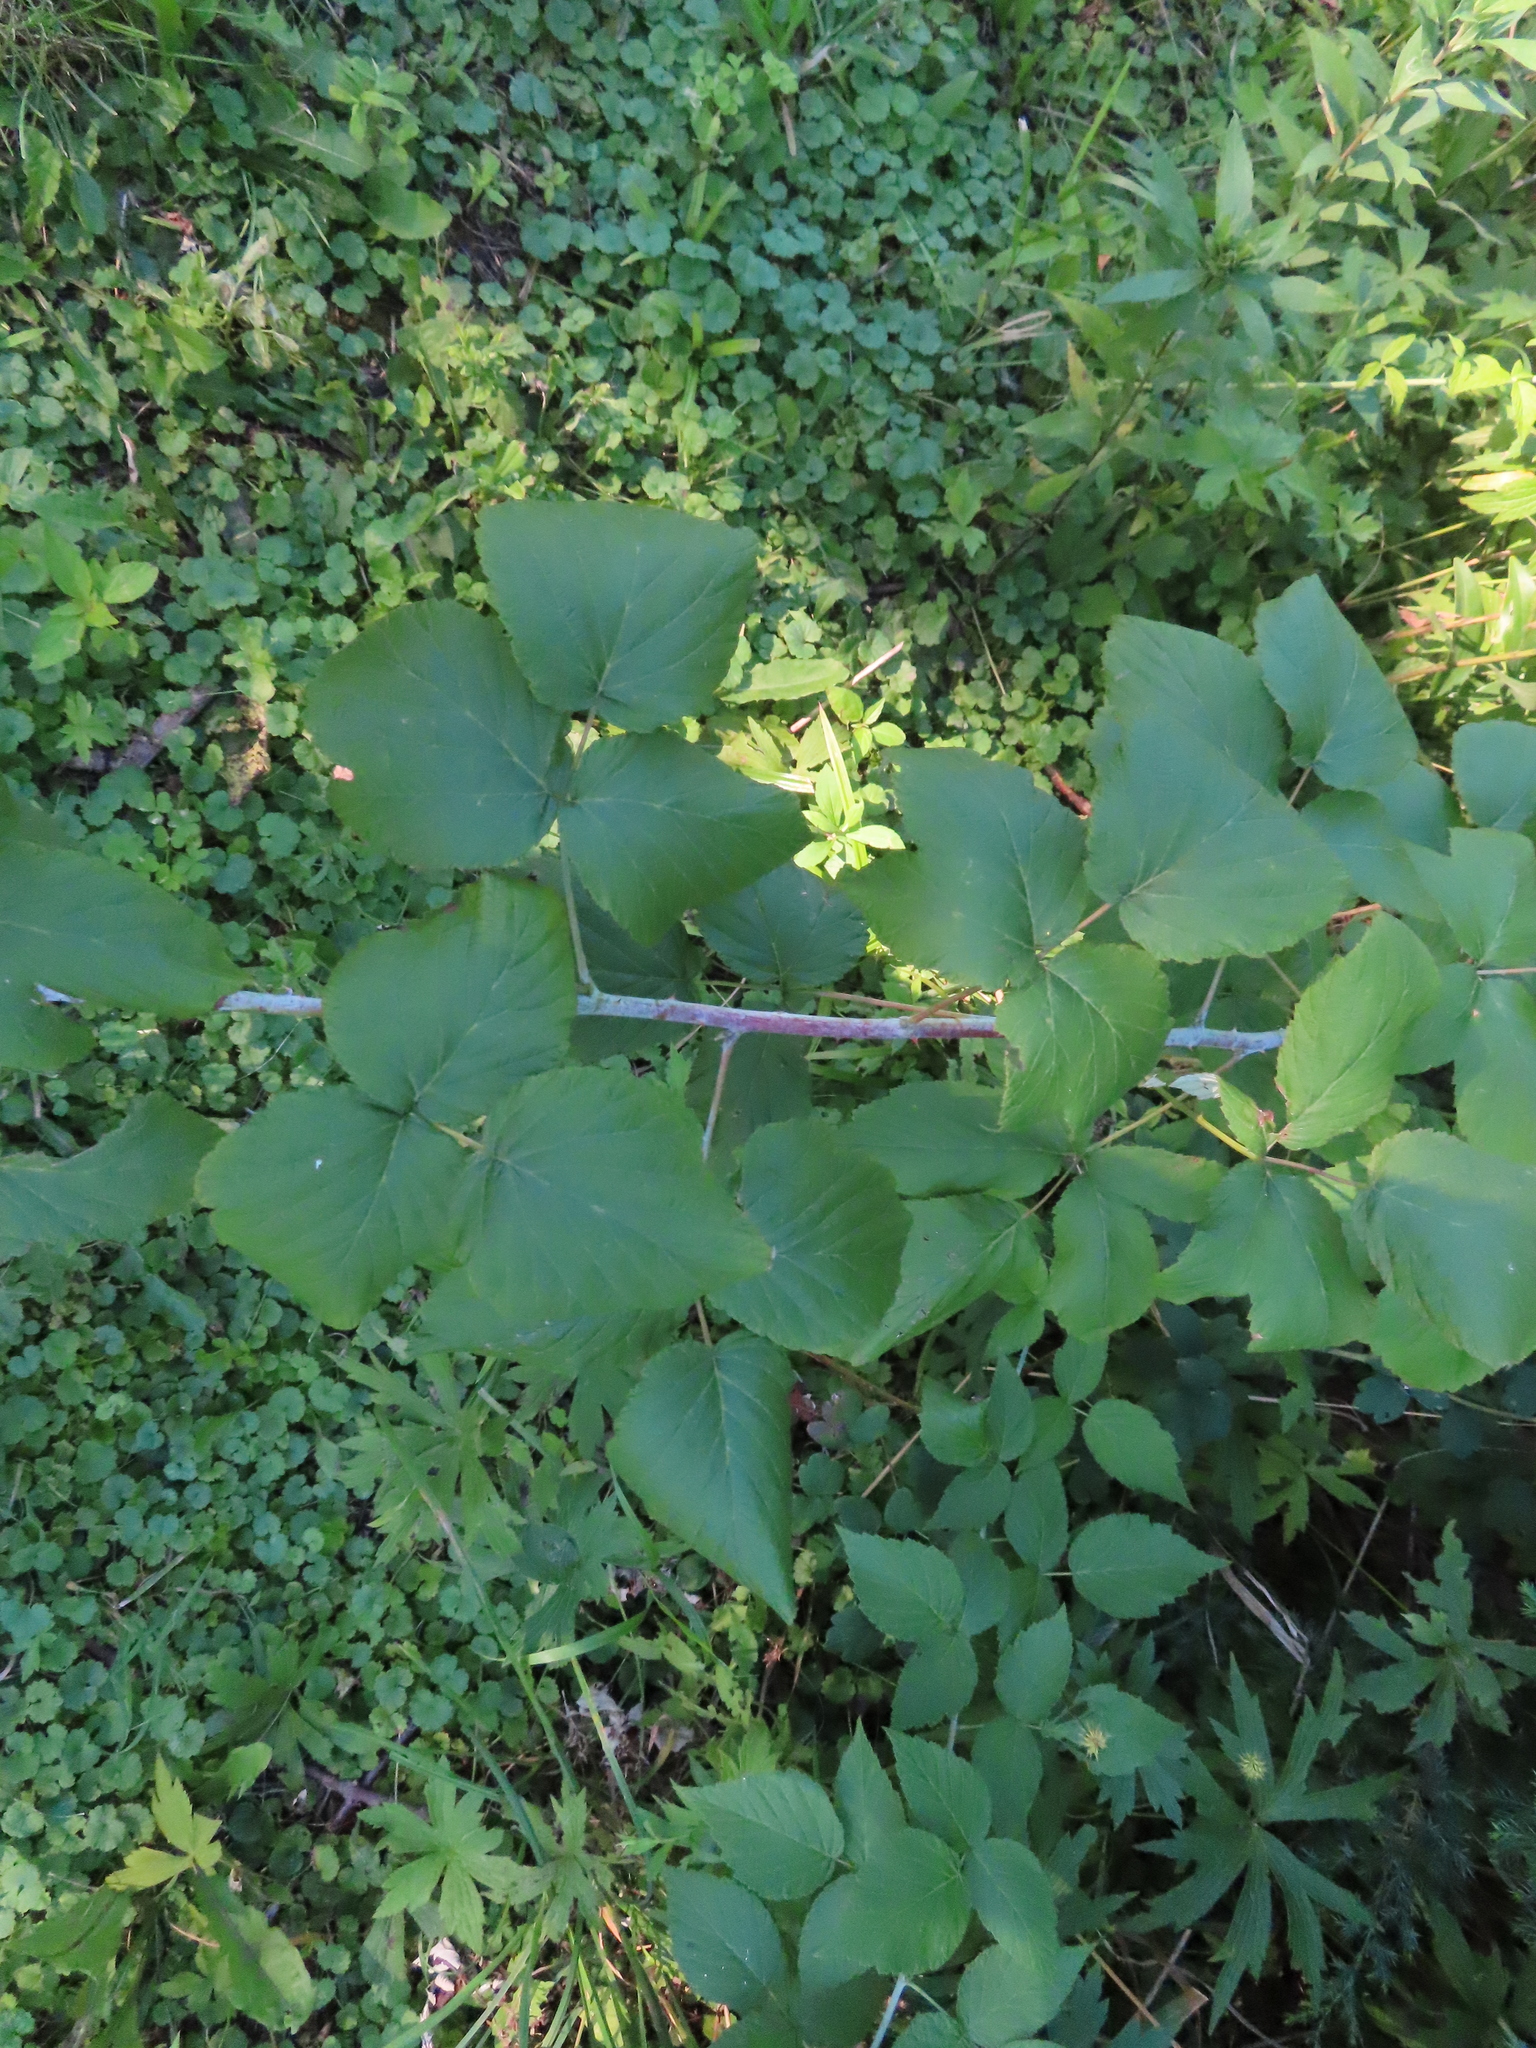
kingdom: Plantae
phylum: Tracheophyta
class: Magnoliopsida
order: Rosales
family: Rosaceae
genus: Rubus
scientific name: Rubus occidentalis
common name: Black raspberry
